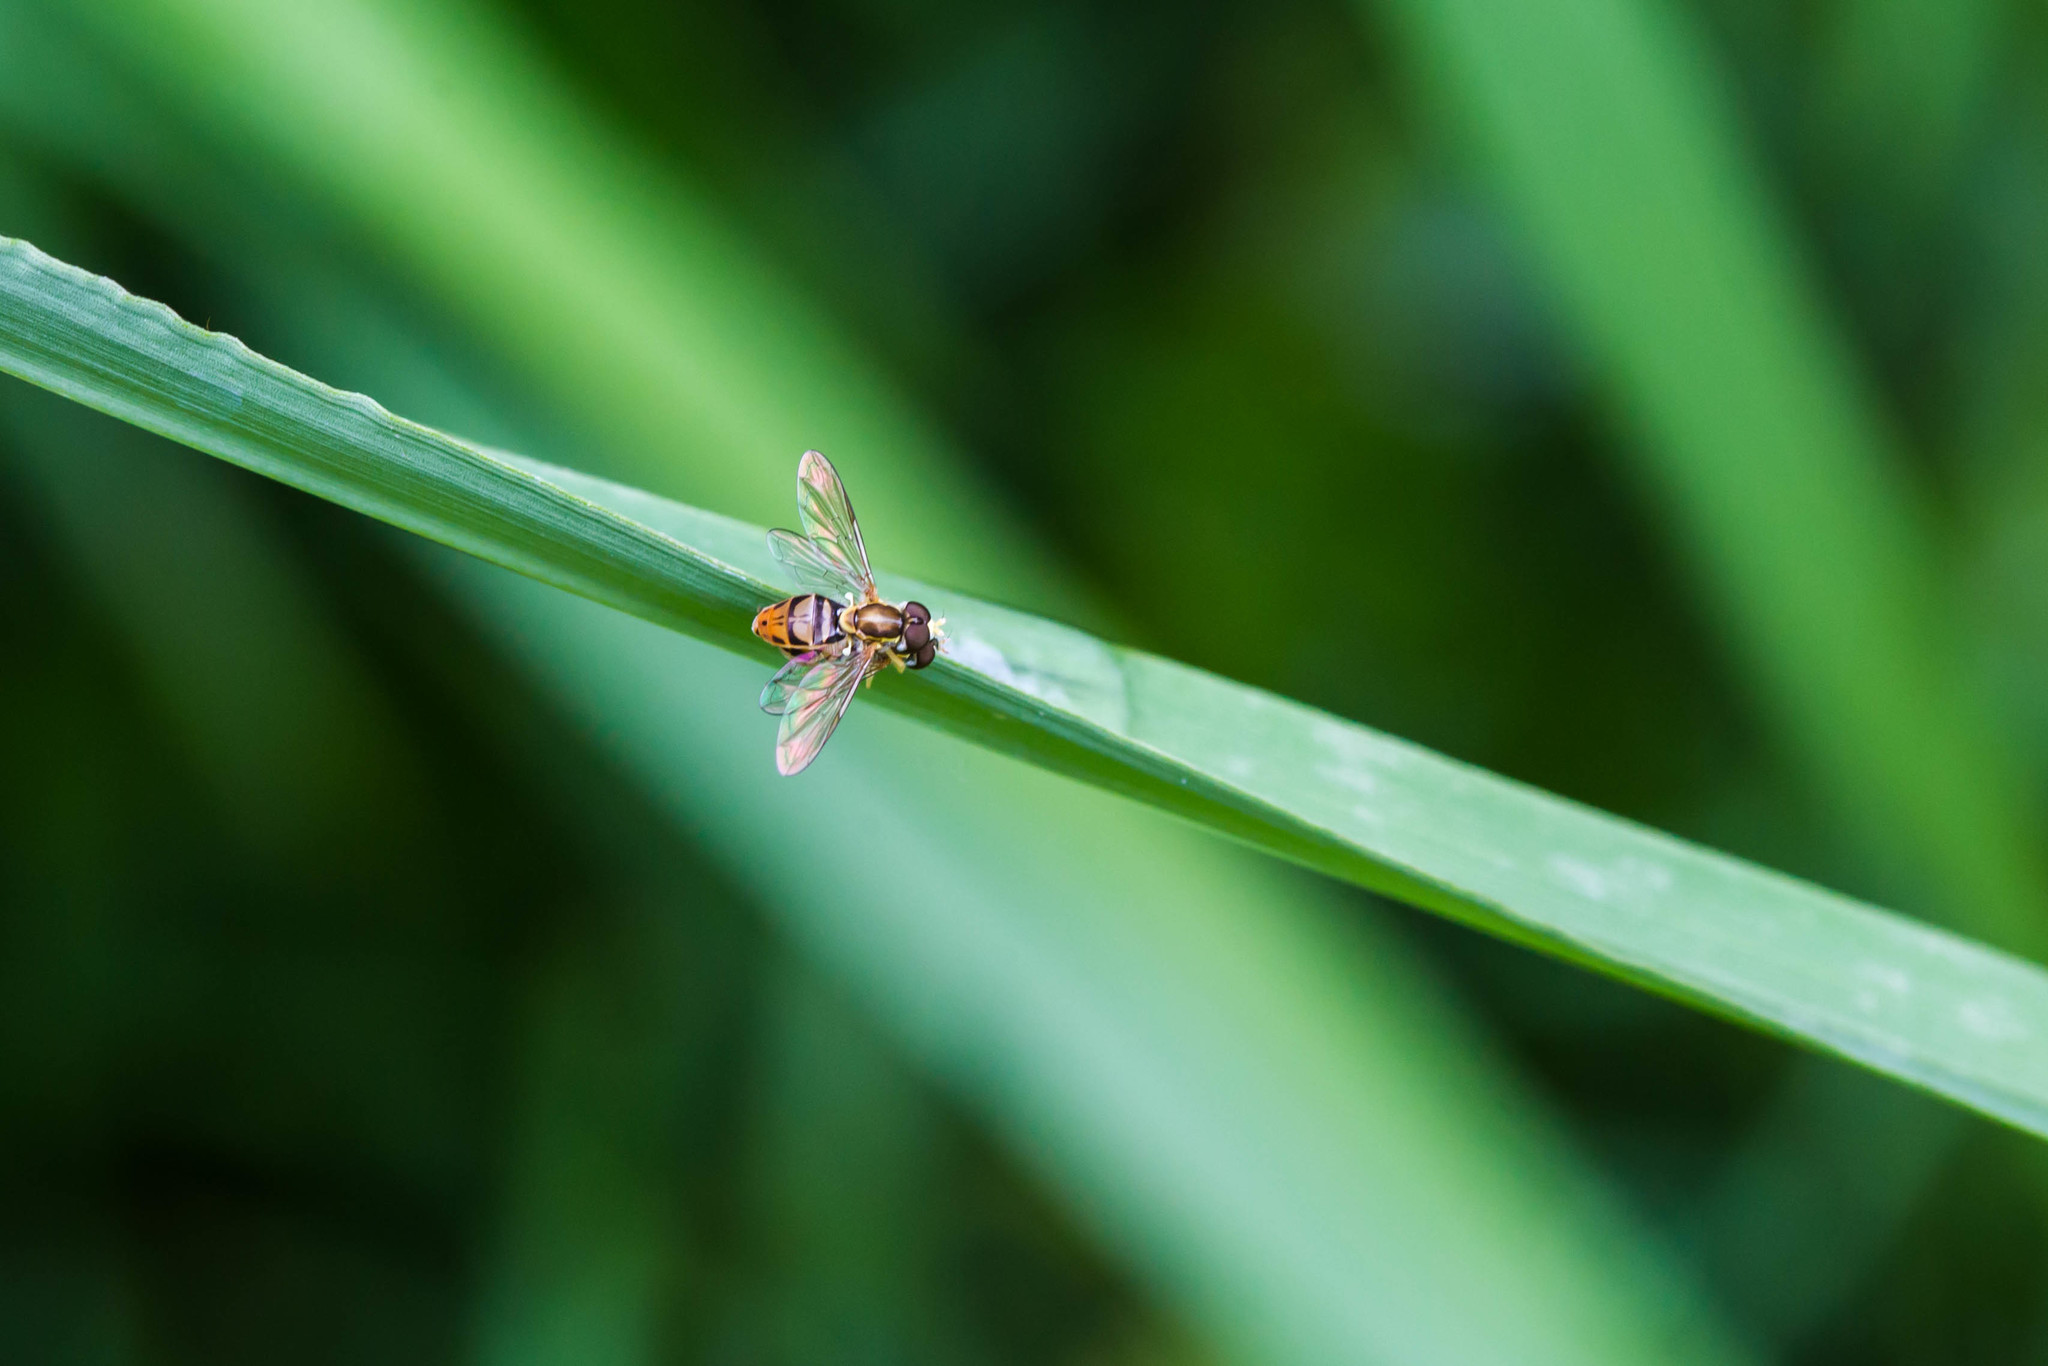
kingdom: Animalia
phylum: Arthropoda
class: Insecta
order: Diptera
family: Syrphidae
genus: Toxomerus
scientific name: Toxomerus marginatus
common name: Syrphid fly
